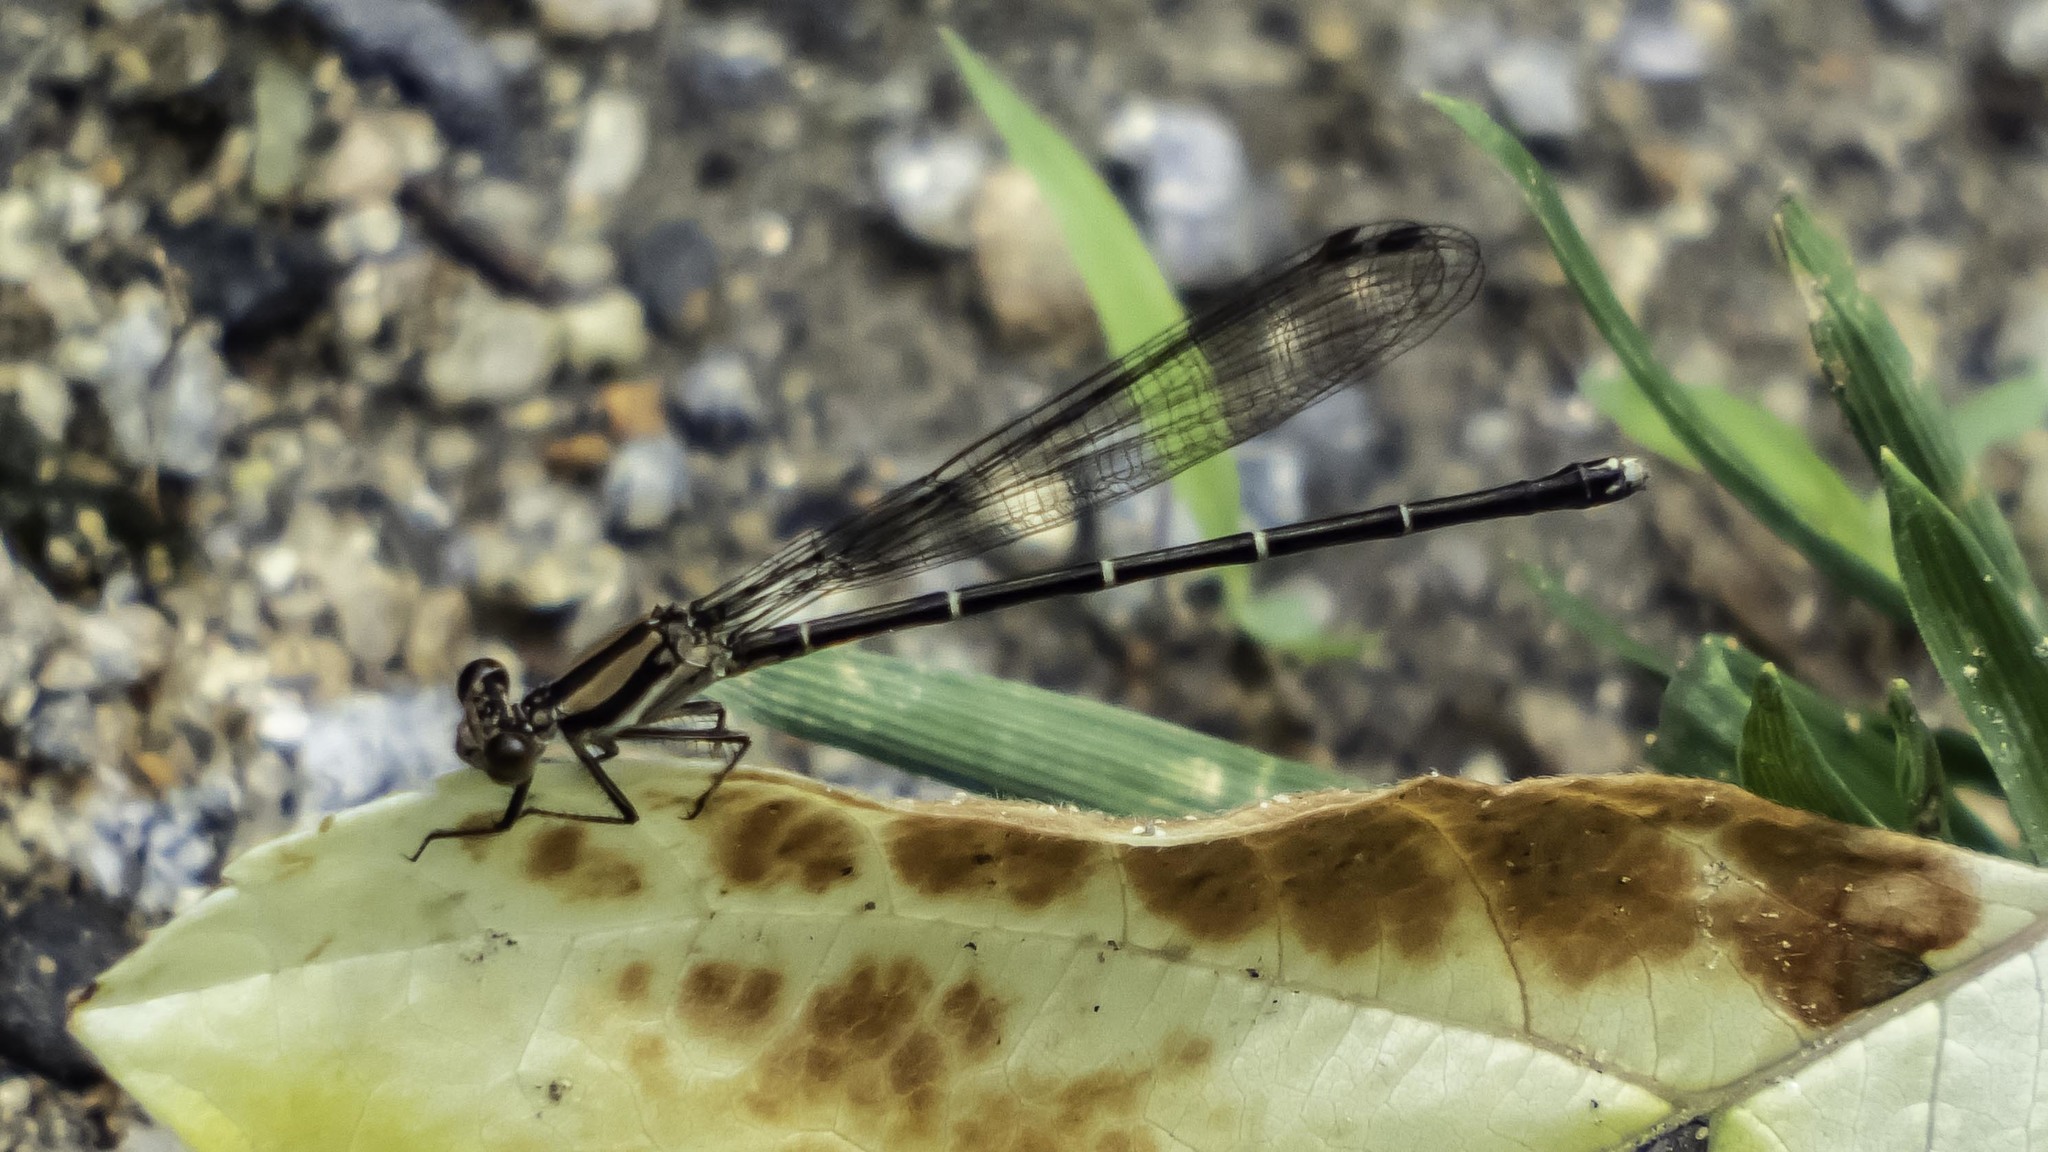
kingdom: Animalia
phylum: Arthropoda
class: Insecta
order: Odonata
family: Coenagrionidae
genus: Argia
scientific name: Argia tibialis
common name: Blue-tipped dancer
